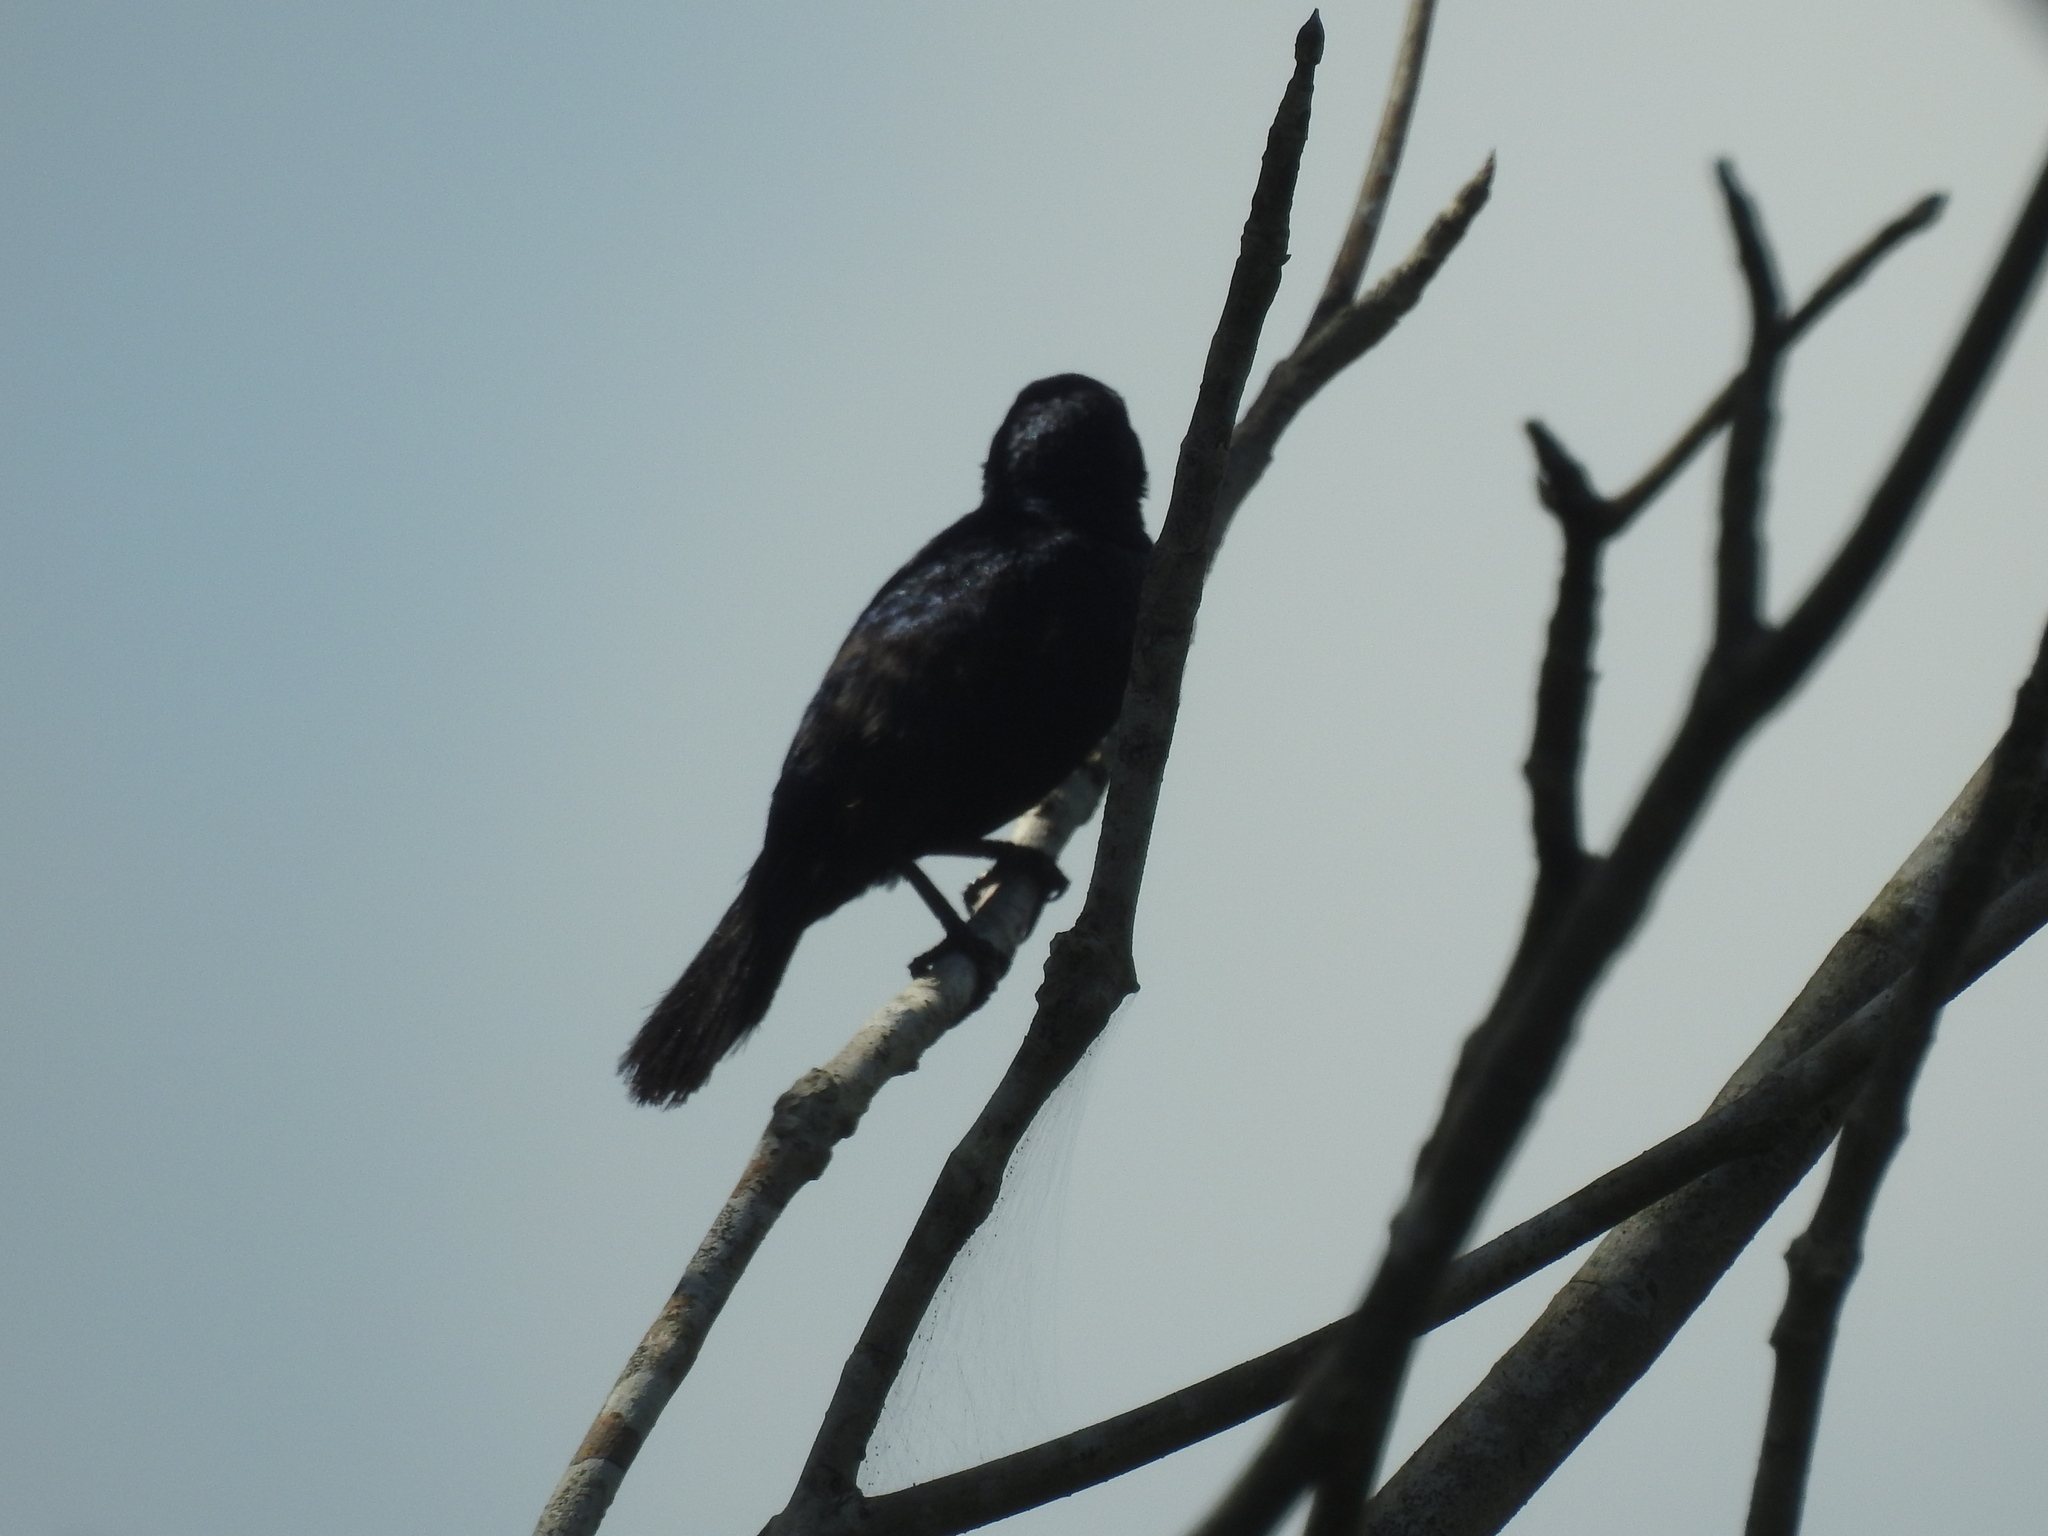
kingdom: Animalia
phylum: Chordata
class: Aves
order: Passeriformes
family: Thraupidae
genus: Volatinia
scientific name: Volatinia jacarina
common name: Blue-black grassquit
